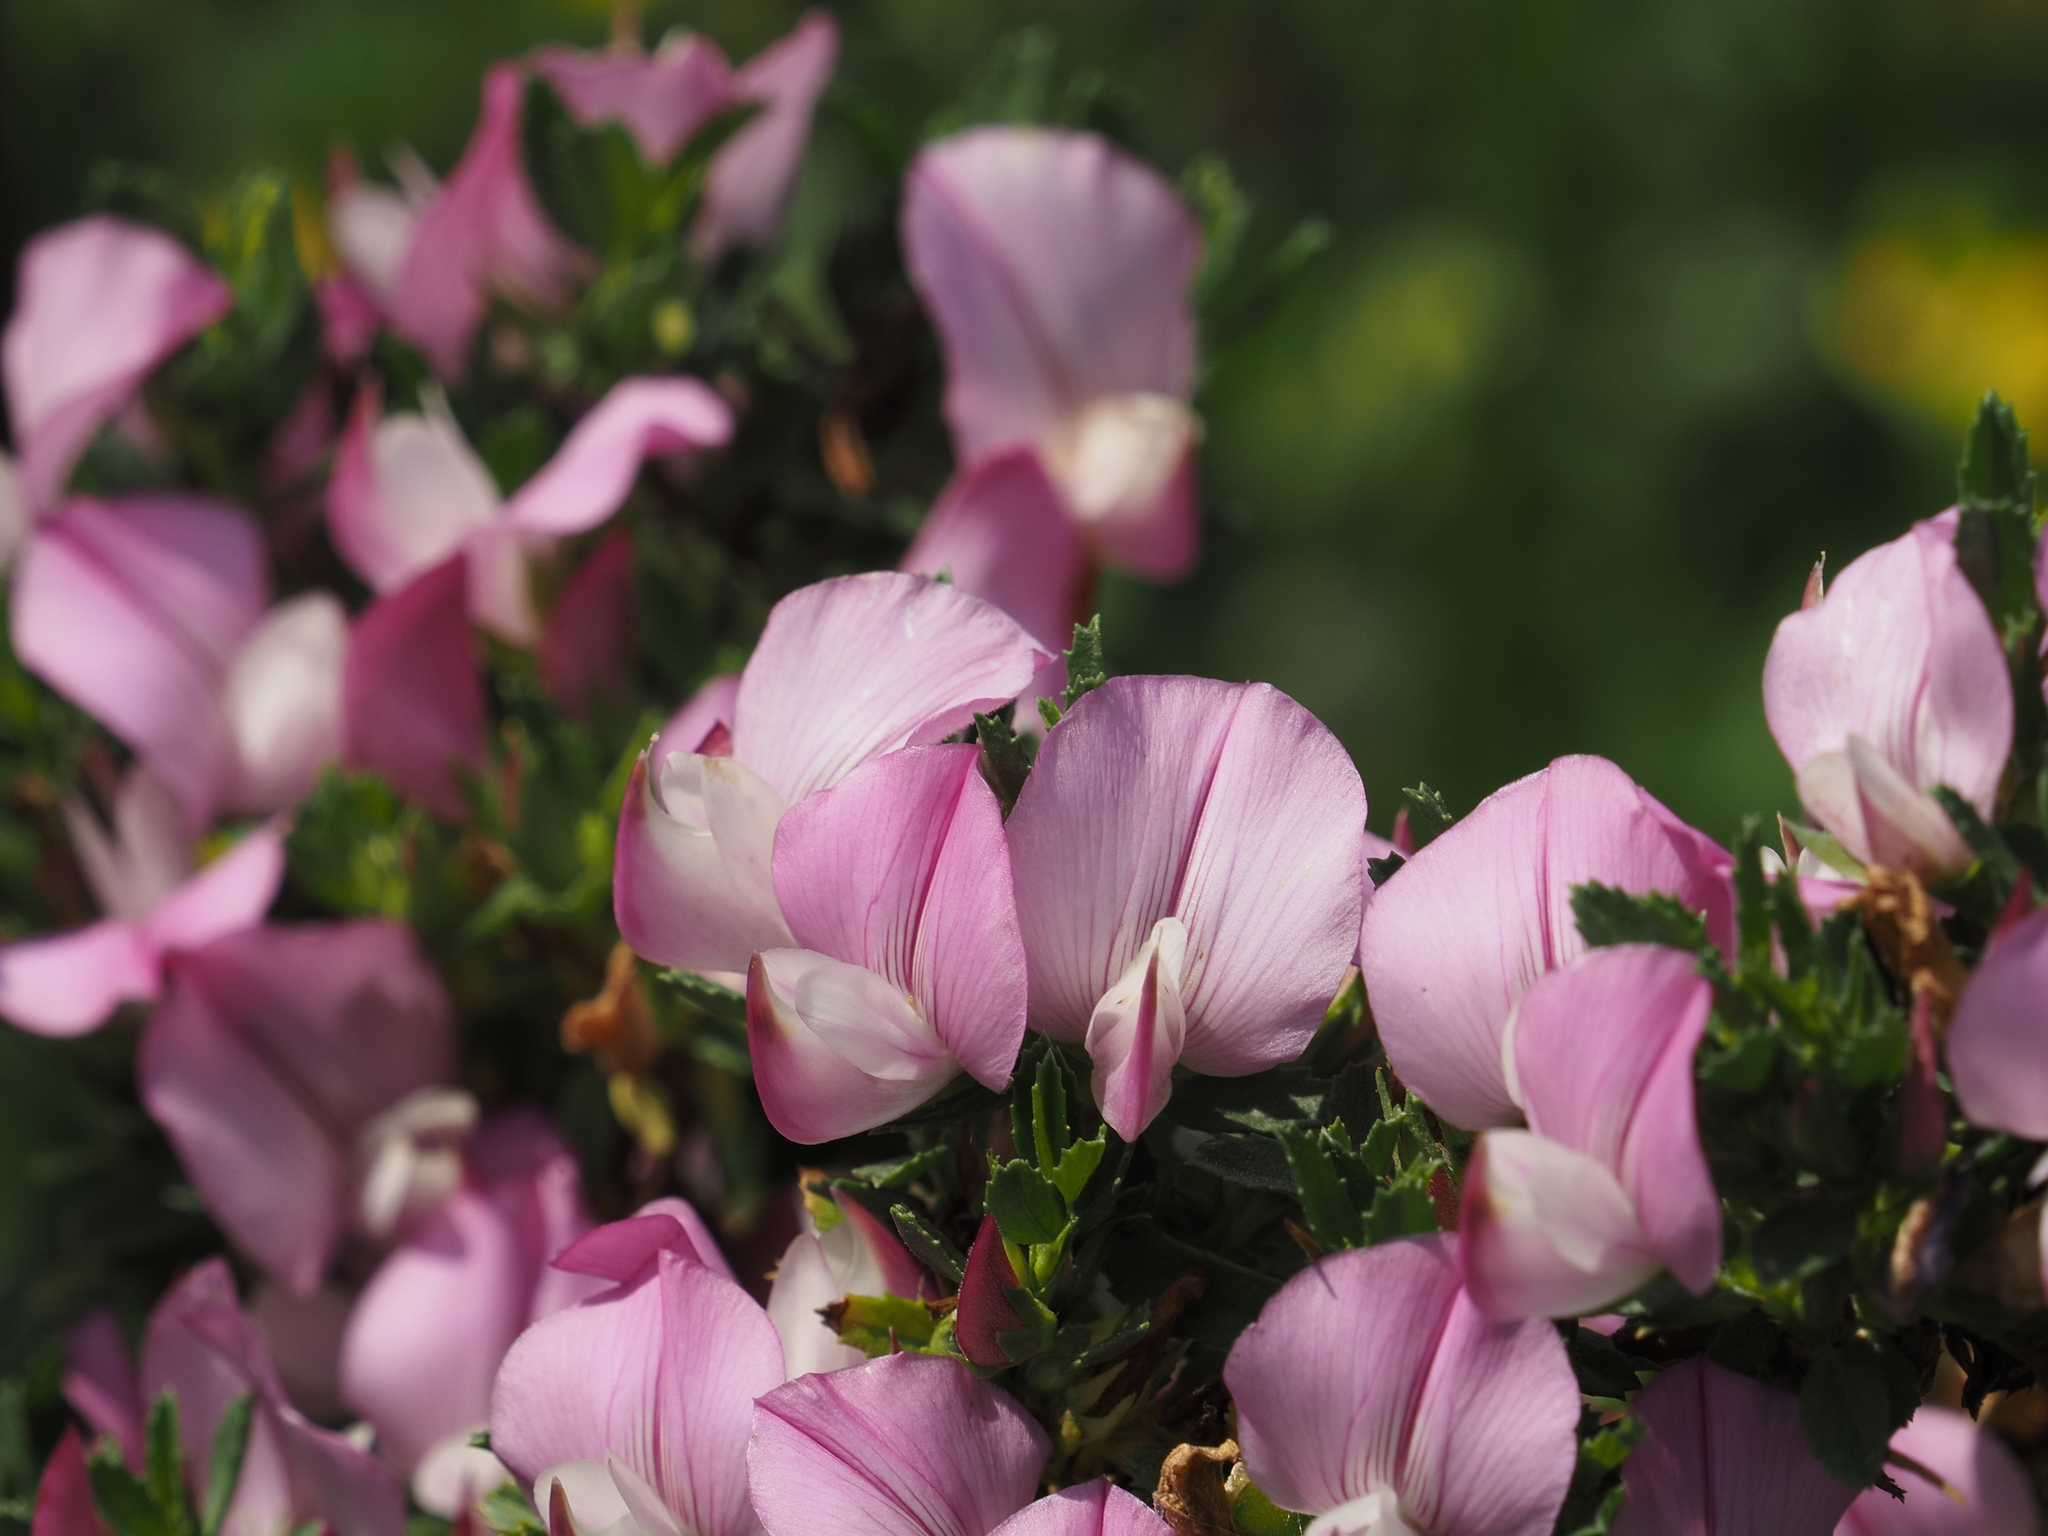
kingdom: Plantae
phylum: Tracheophyta
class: Magnoliopsida
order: Fabales
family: Fabaceae
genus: Ononis
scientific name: Ononis spinosa
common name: Spiny restharrow
